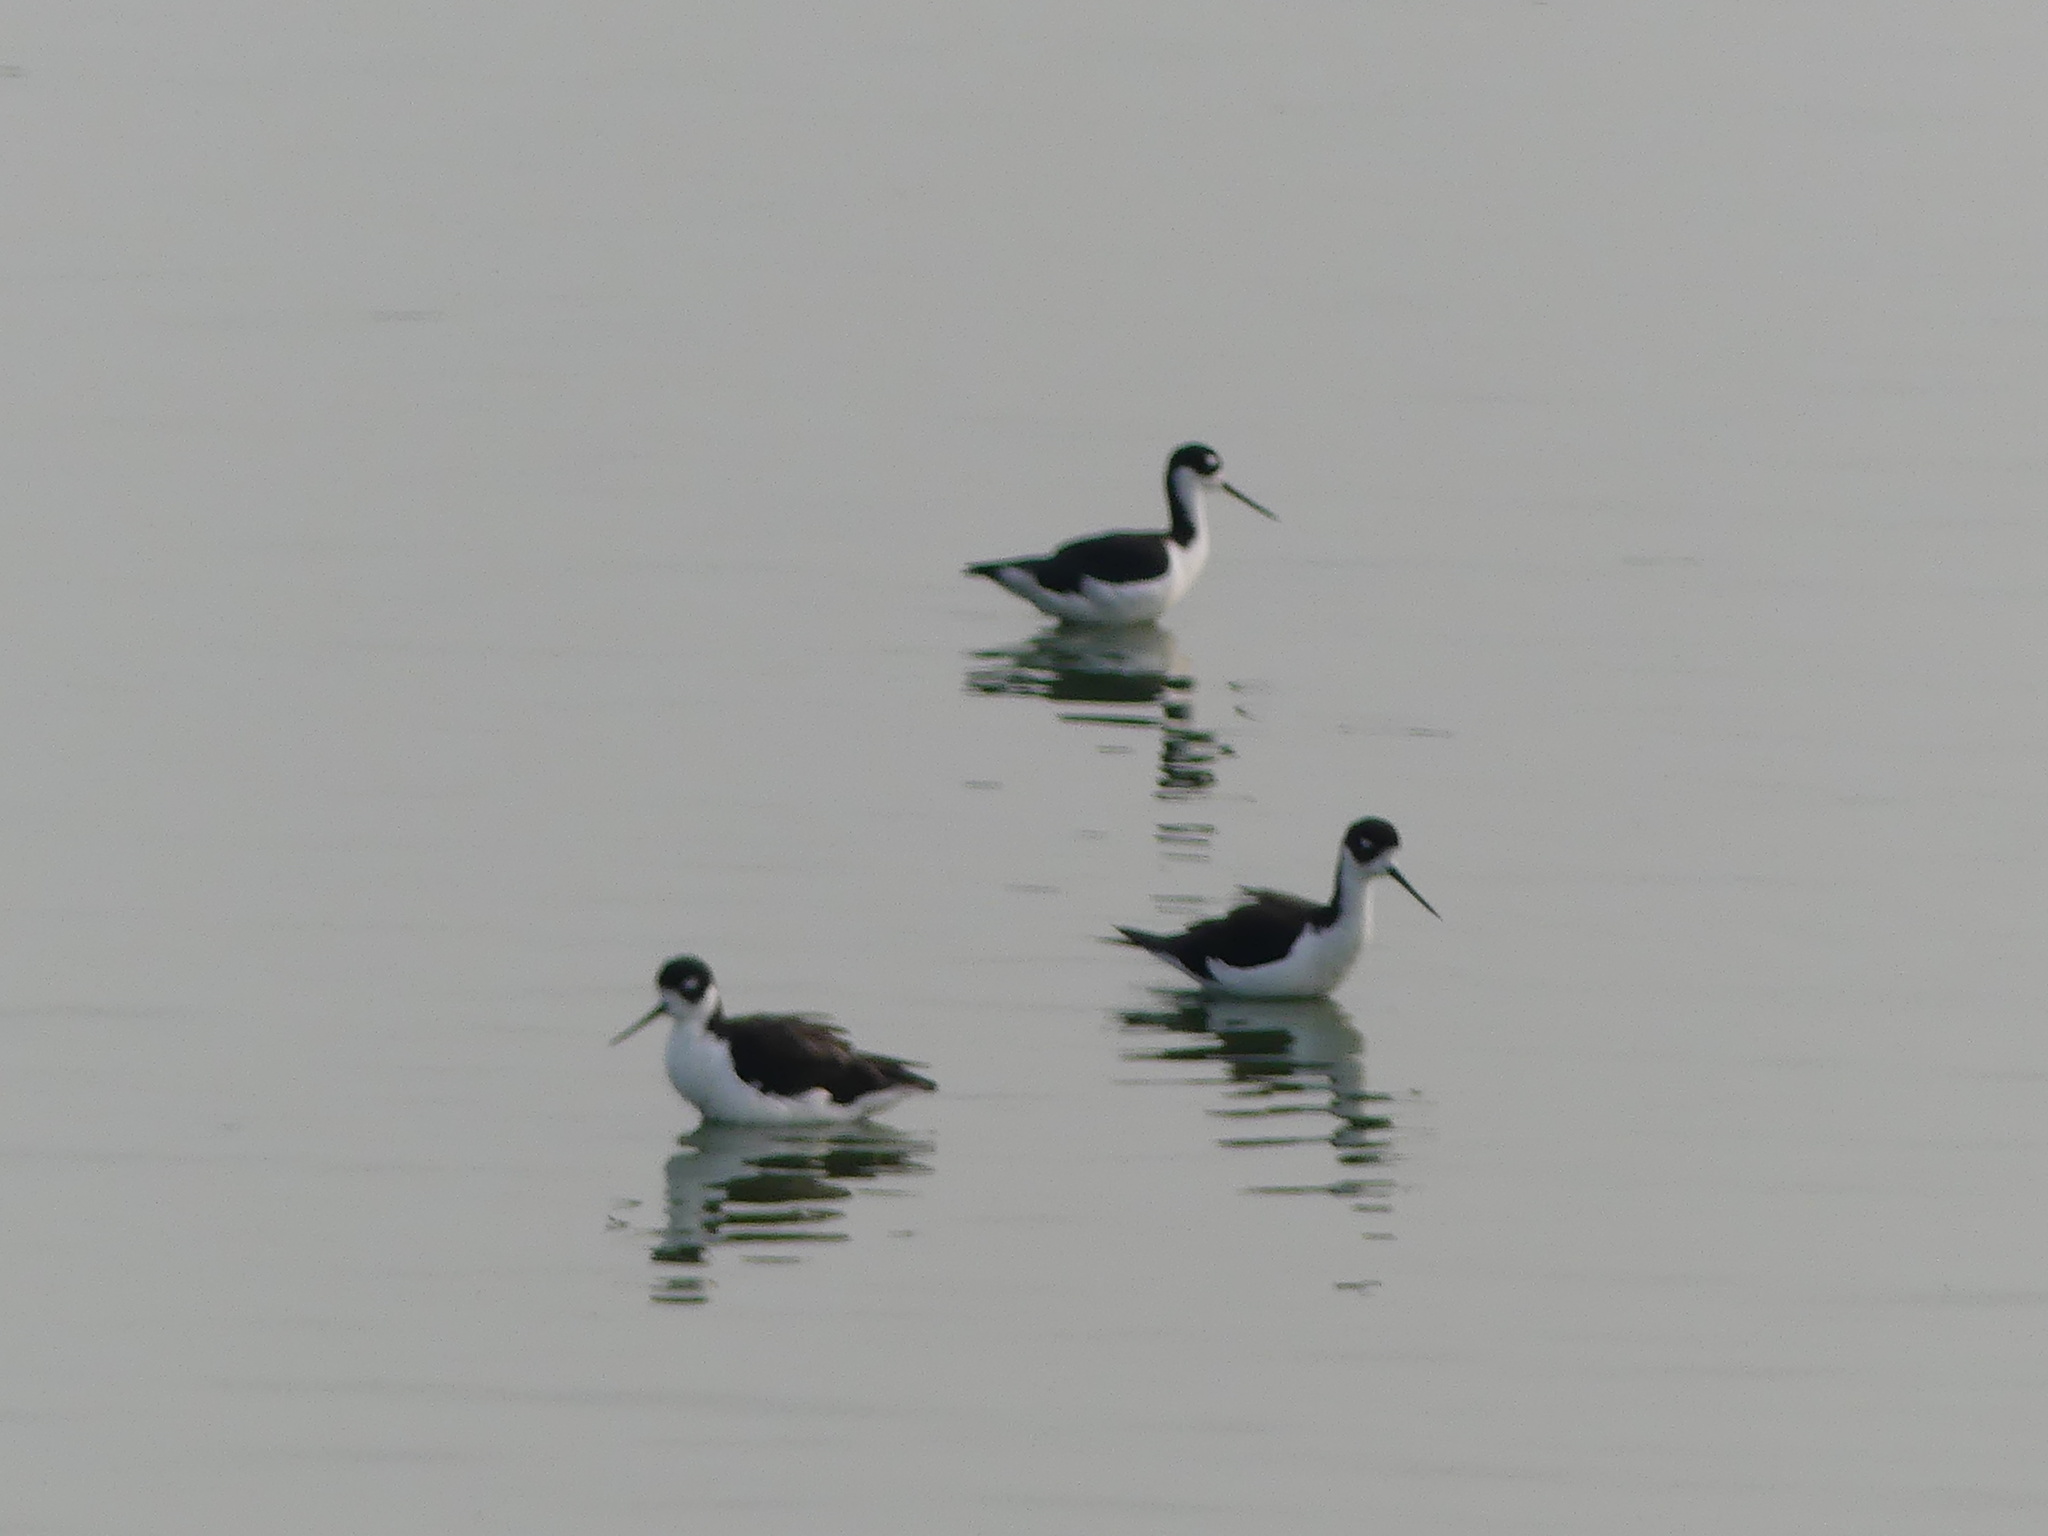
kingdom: Animalia
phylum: Chordata
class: Aves
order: Charadriiformes
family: Recurvirostridae
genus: Himantopus
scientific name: Himantopus mexicanus
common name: Black-necked stilt
